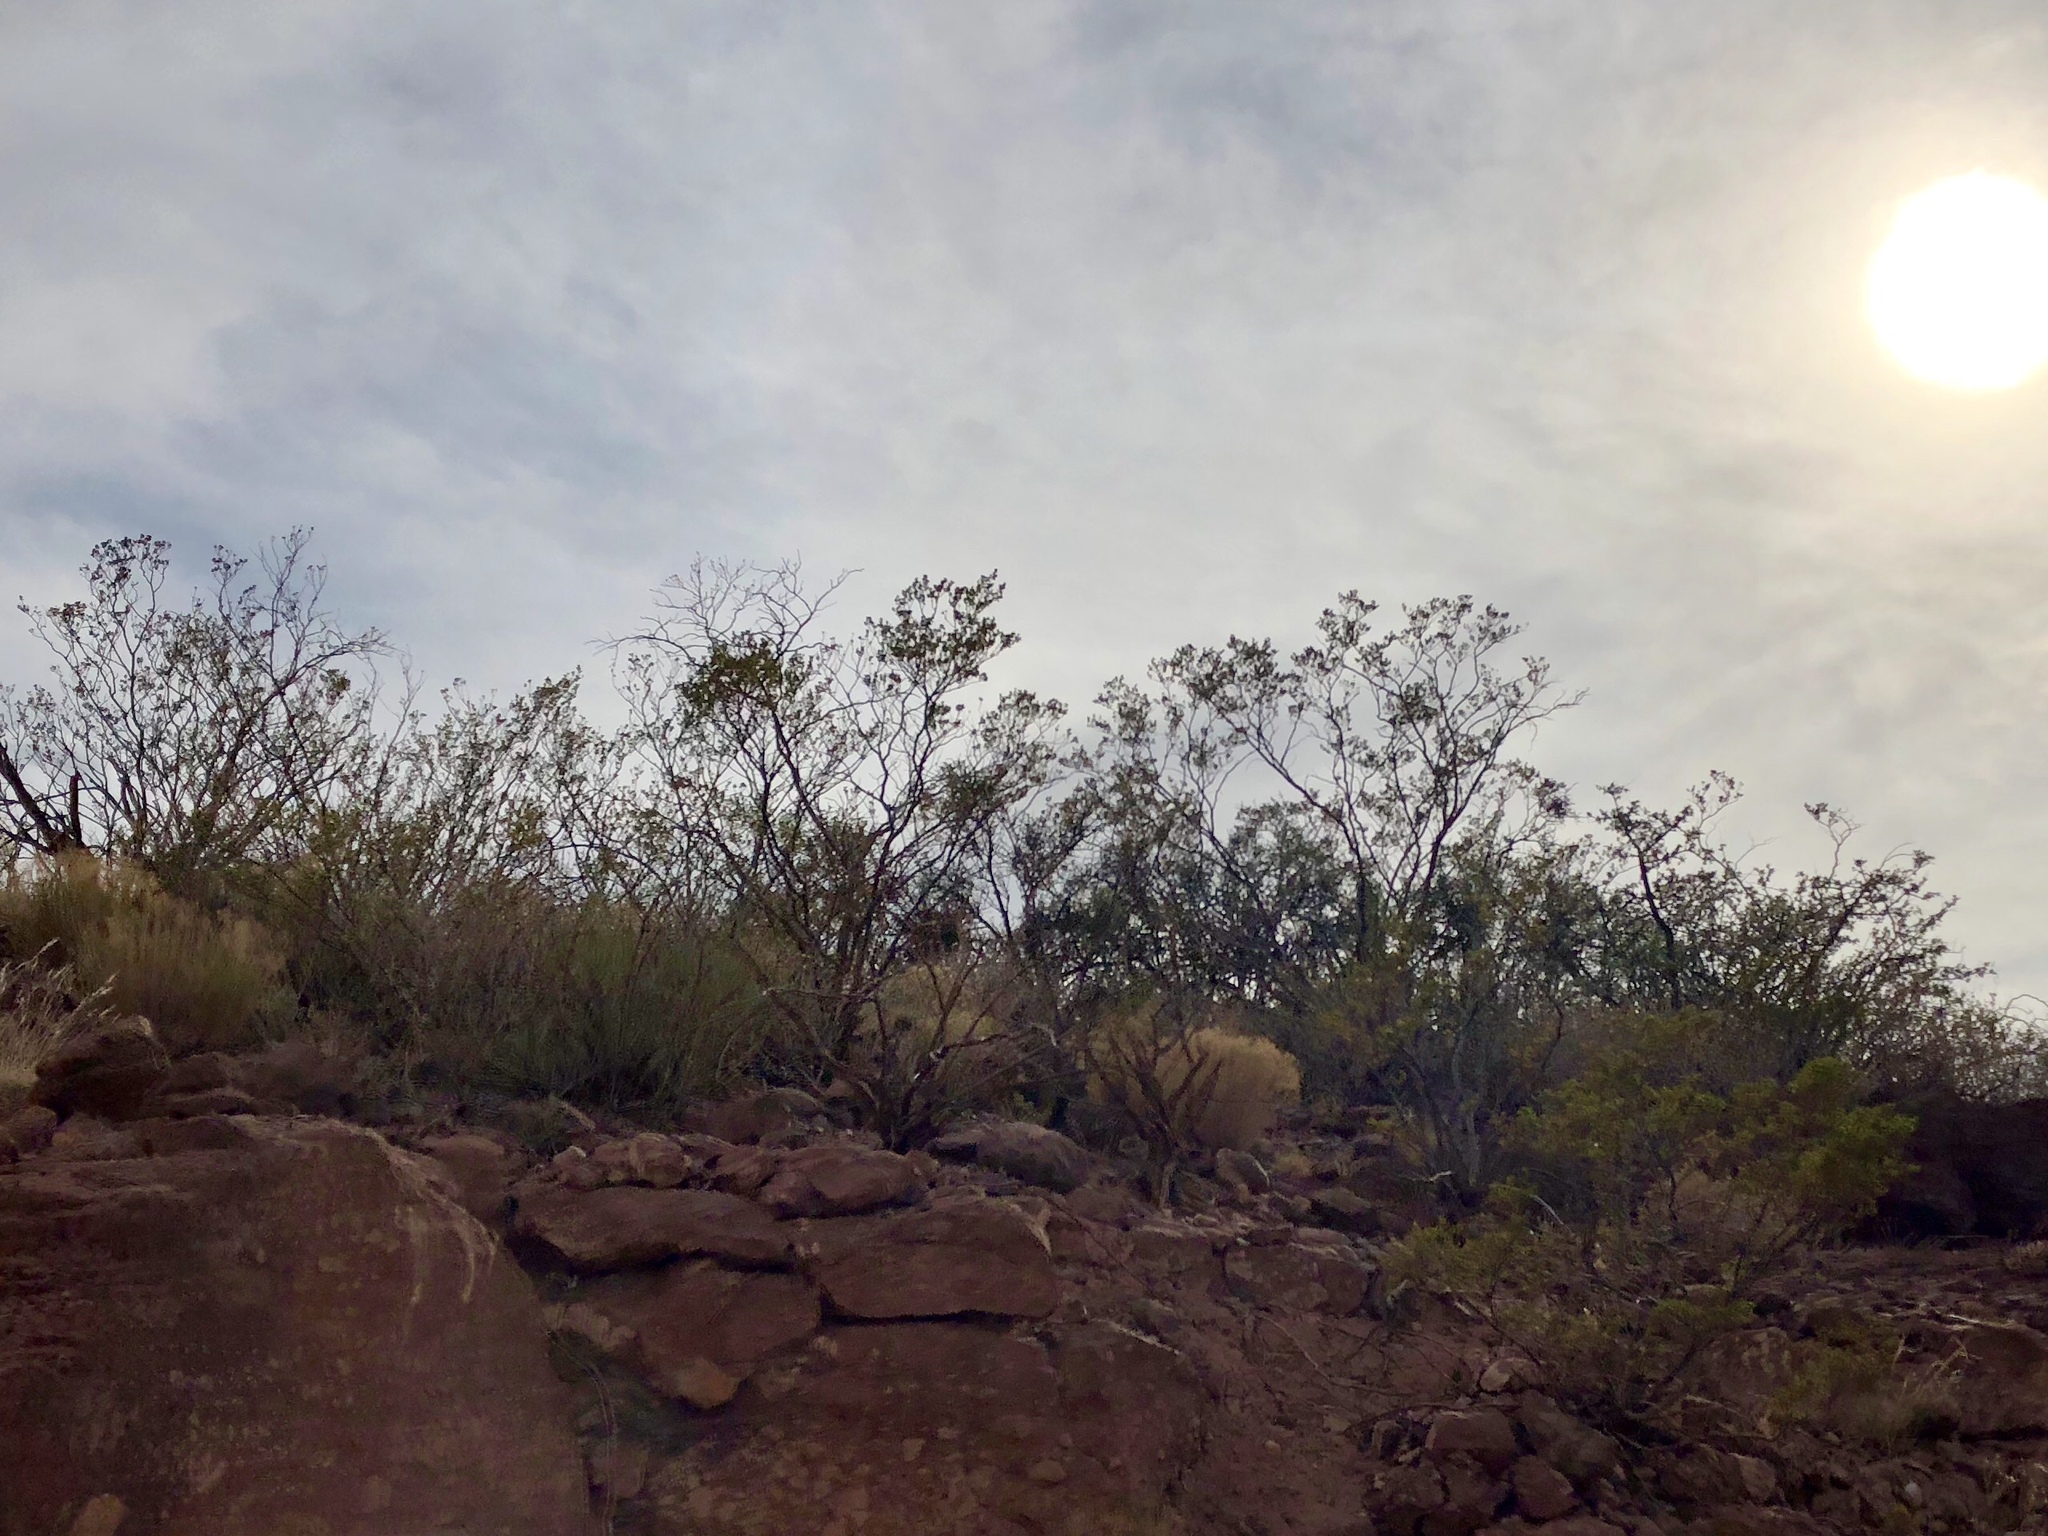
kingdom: Plantae
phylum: Tracheophyta
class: Magnoliopsida
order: Zygophyllales
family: Zygophyllaceae
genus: Larrea
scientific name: Larrea tridentata
